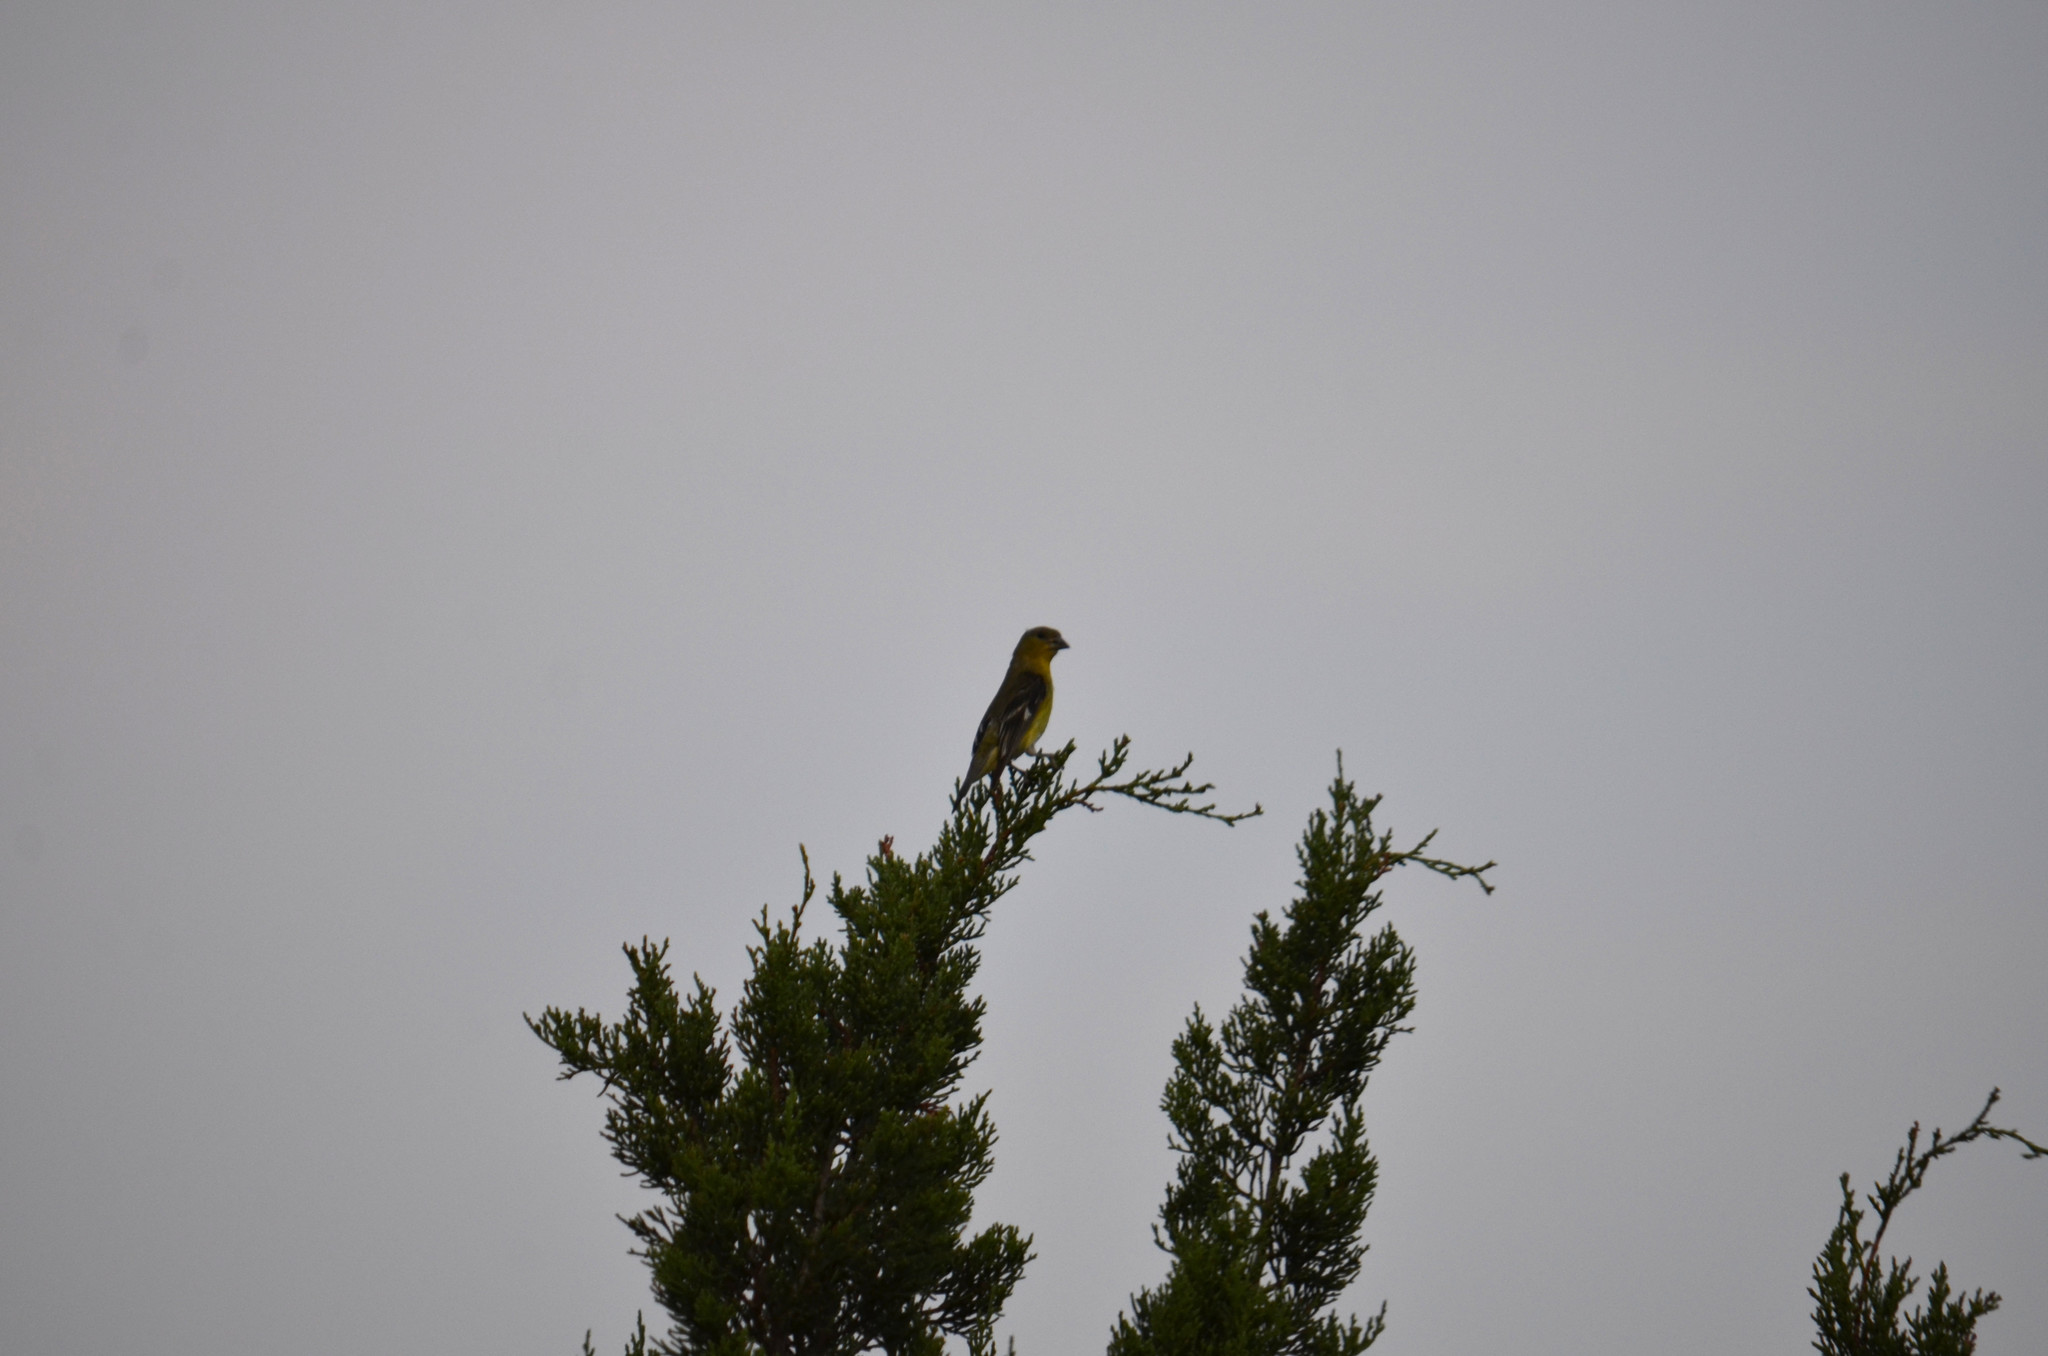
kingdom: Animalia
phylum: Chordata
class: Aves
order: Passeriformes
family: Fringillidae
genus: Spinus
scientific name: Spinus psaltria
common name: Lesser goldfinch
